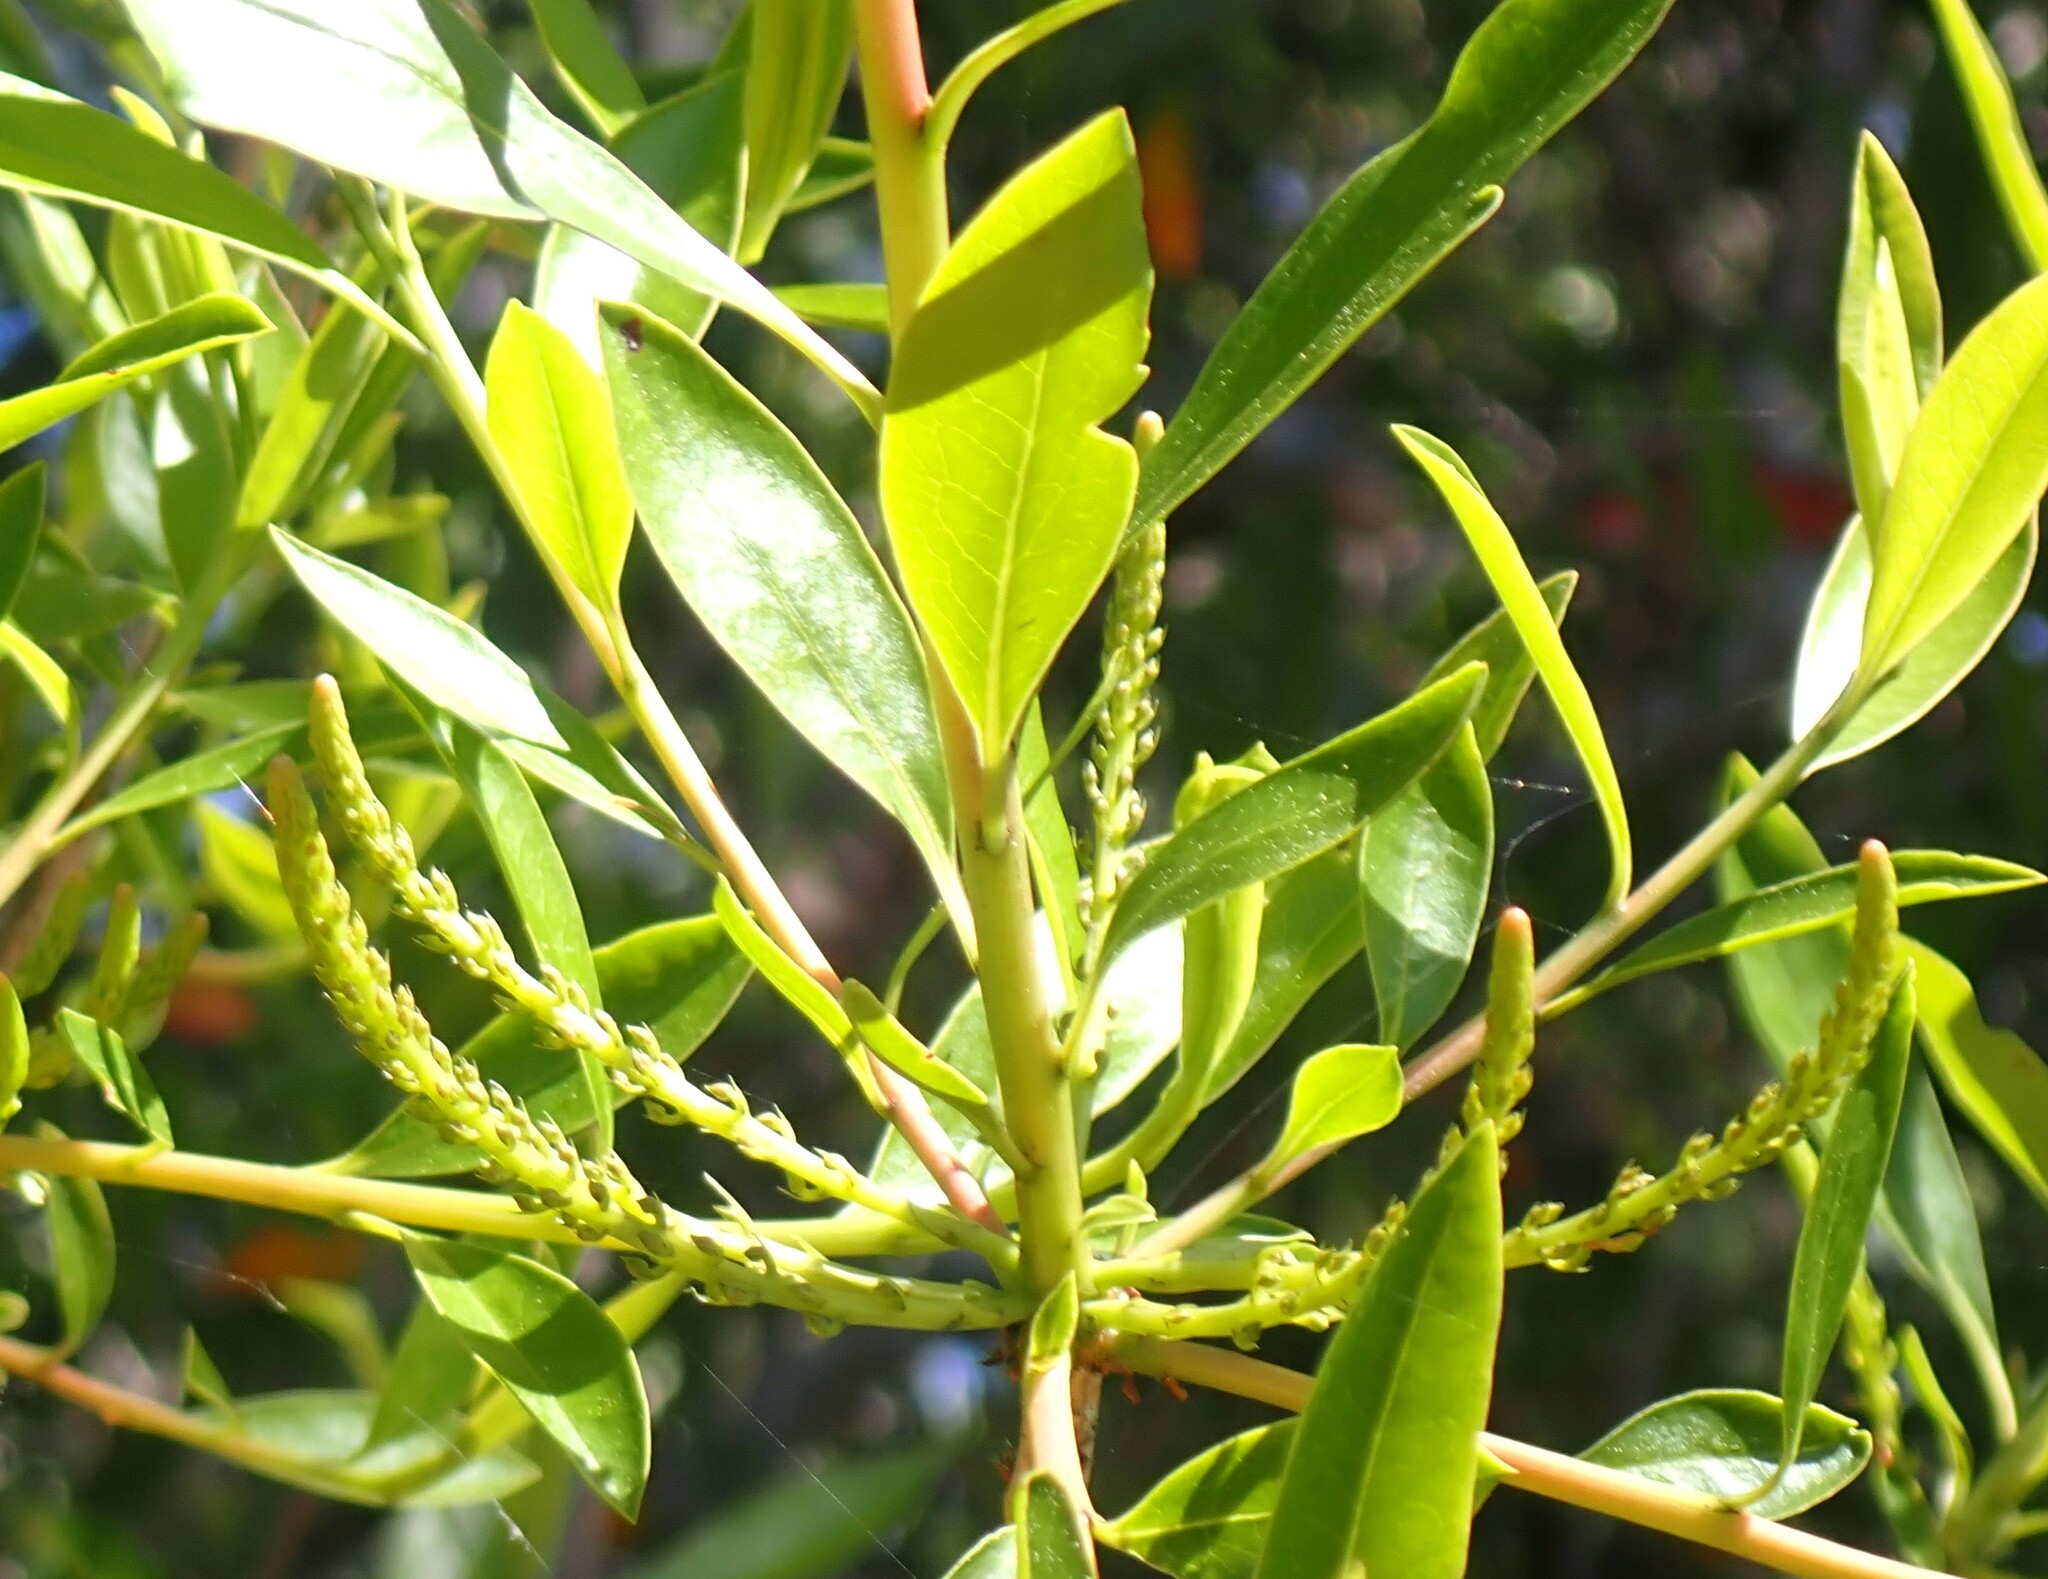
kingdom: Plantae
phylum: Tracheophyta
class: Magnoliopsida
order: Ericales
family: Cyrillaceae
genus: Cyrilla
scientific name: Cyrilla racemiflora
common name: Black titi
